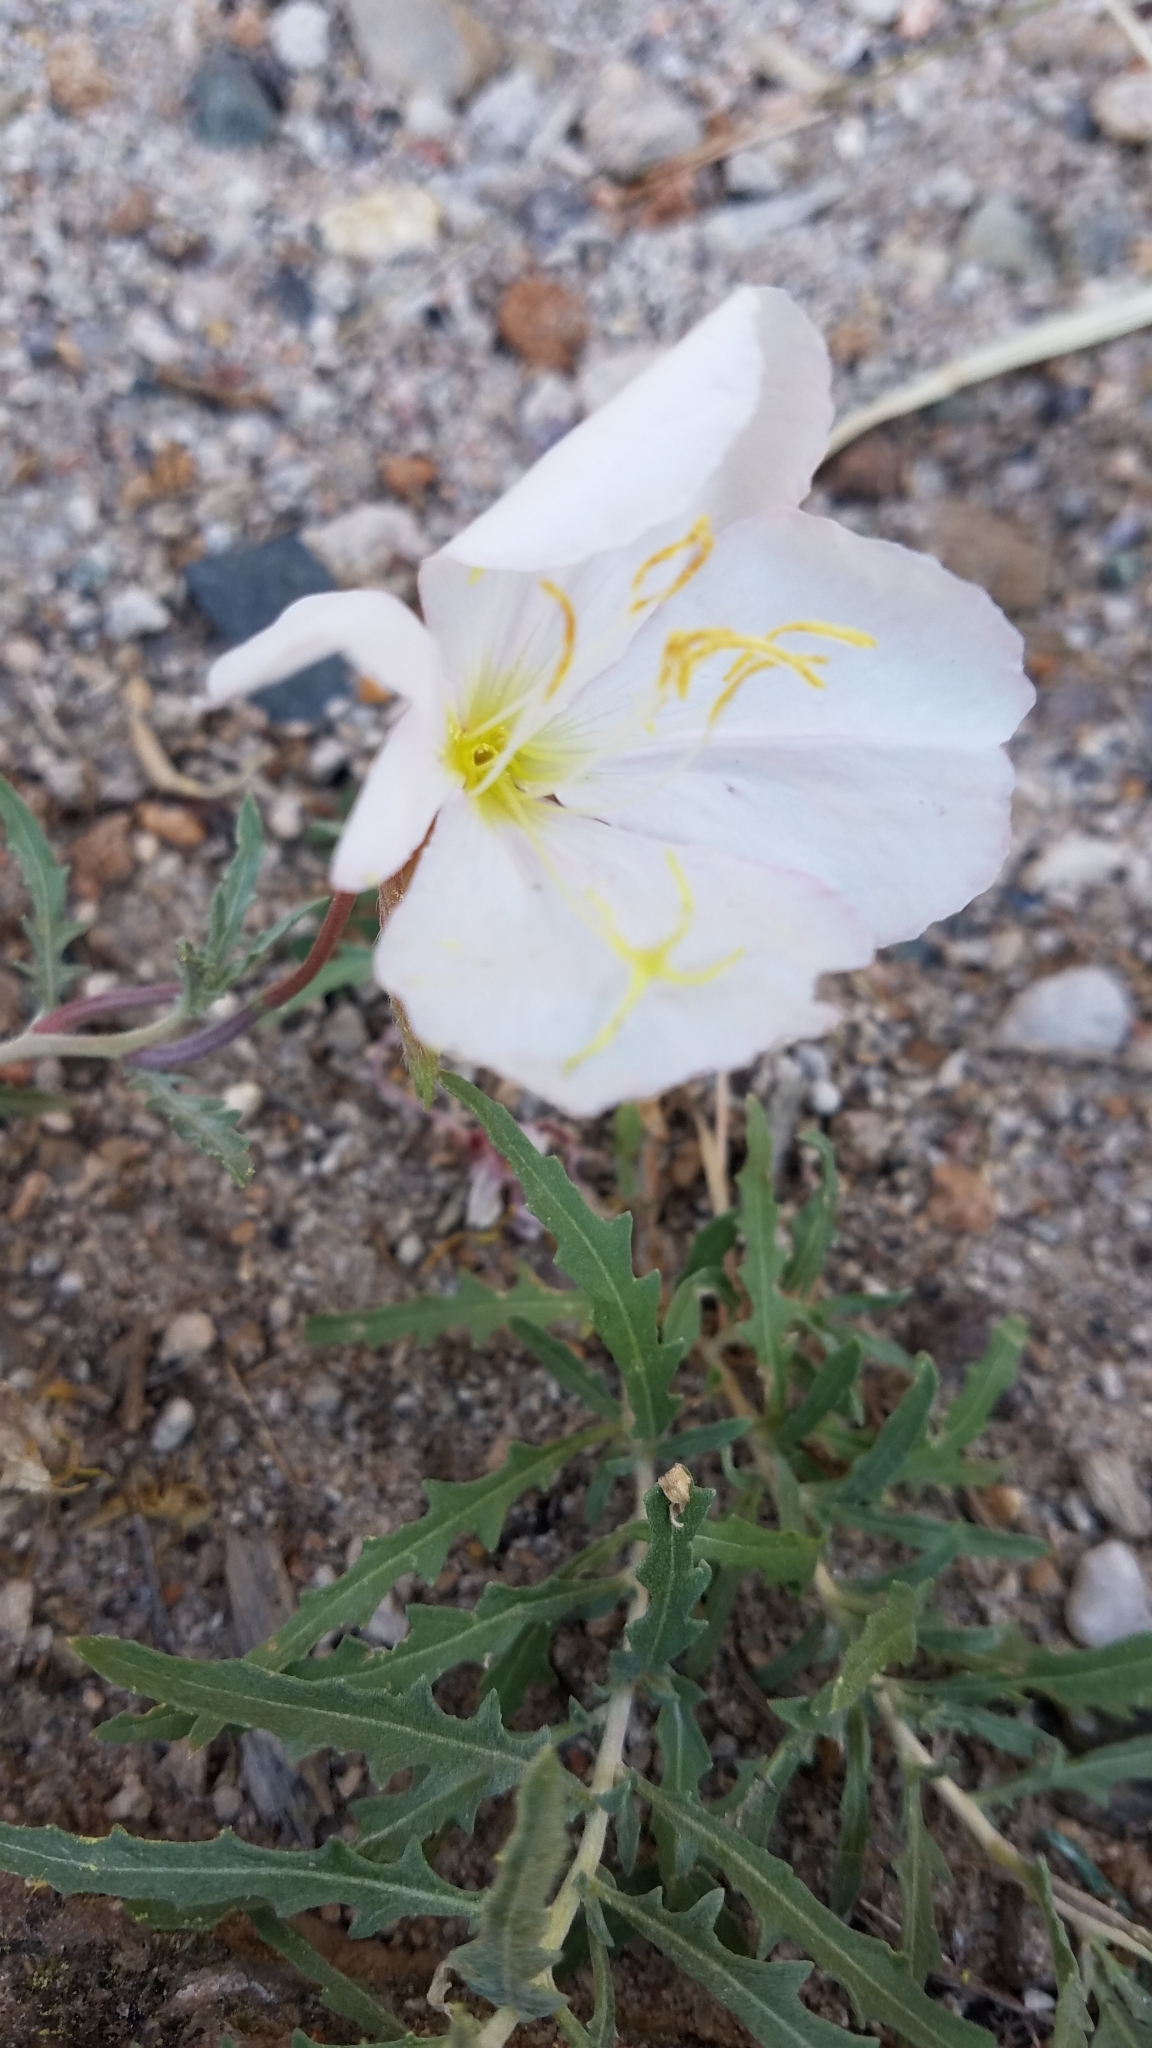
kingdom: Plantae
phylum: Tracheophyta
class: Magnoliopsida
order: Myrtales
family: Onagraceae
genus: Oenothera
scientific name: Oenothera cespitosa
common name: Tufted evening-primrose
